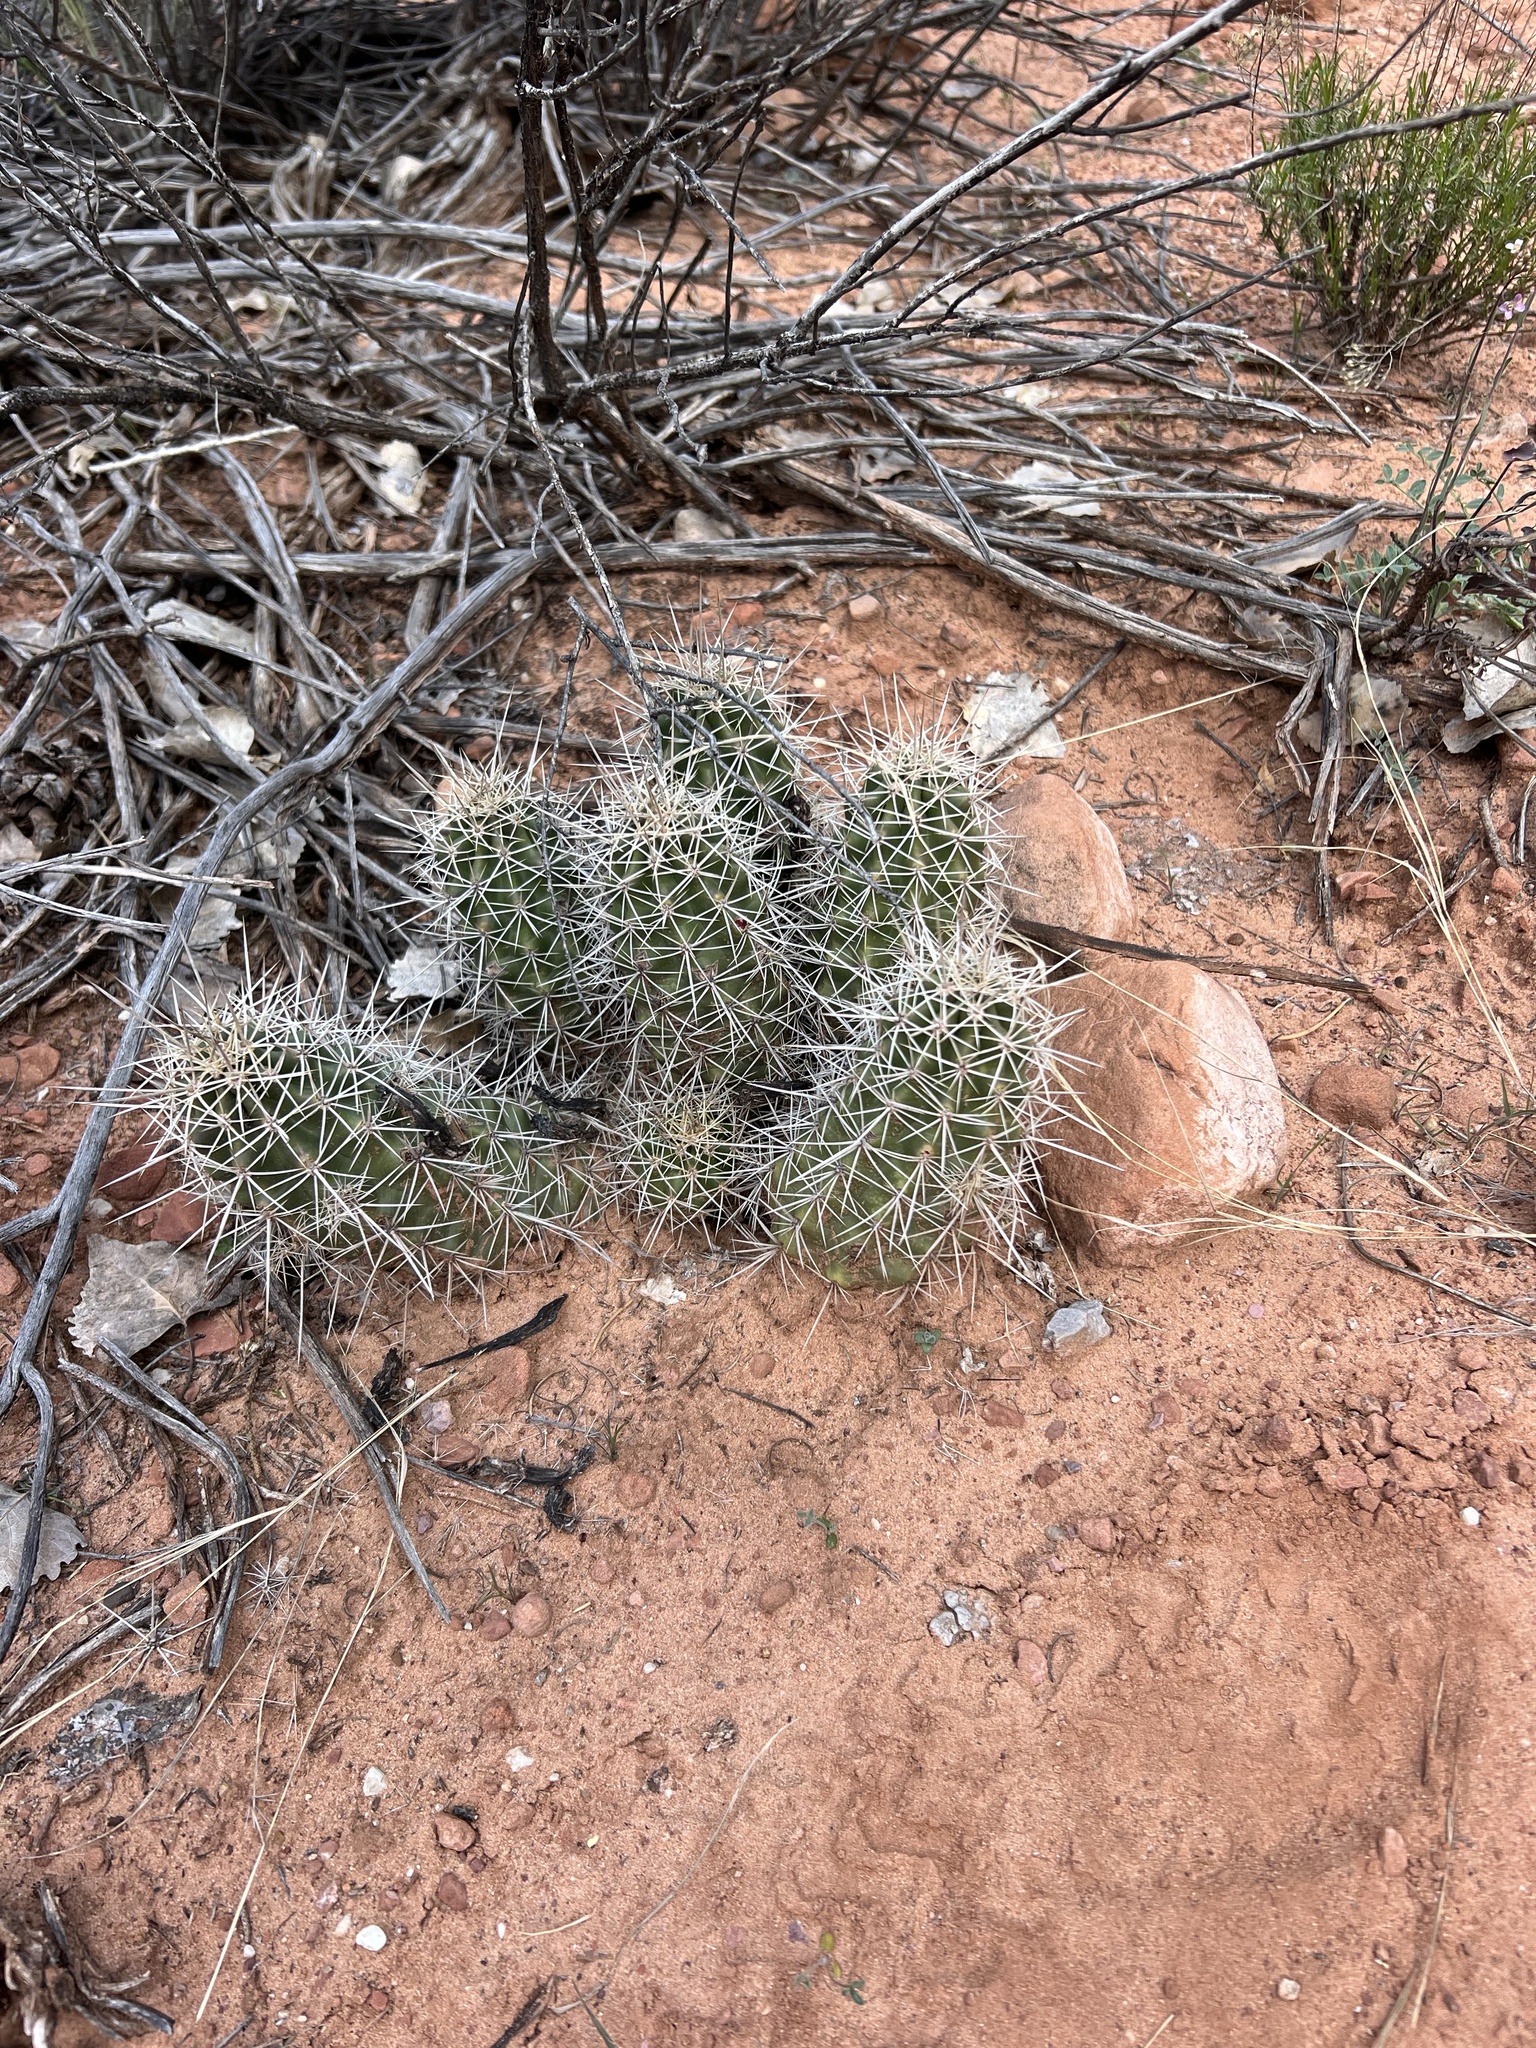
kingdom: Plantae
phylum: Tracheophyta
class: Magnoliopsida
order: Caryophyllales
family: Cactaceae
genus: Echinocereus
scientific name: Echinocereus triglochidiatus
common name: Claretcup hedgehog
